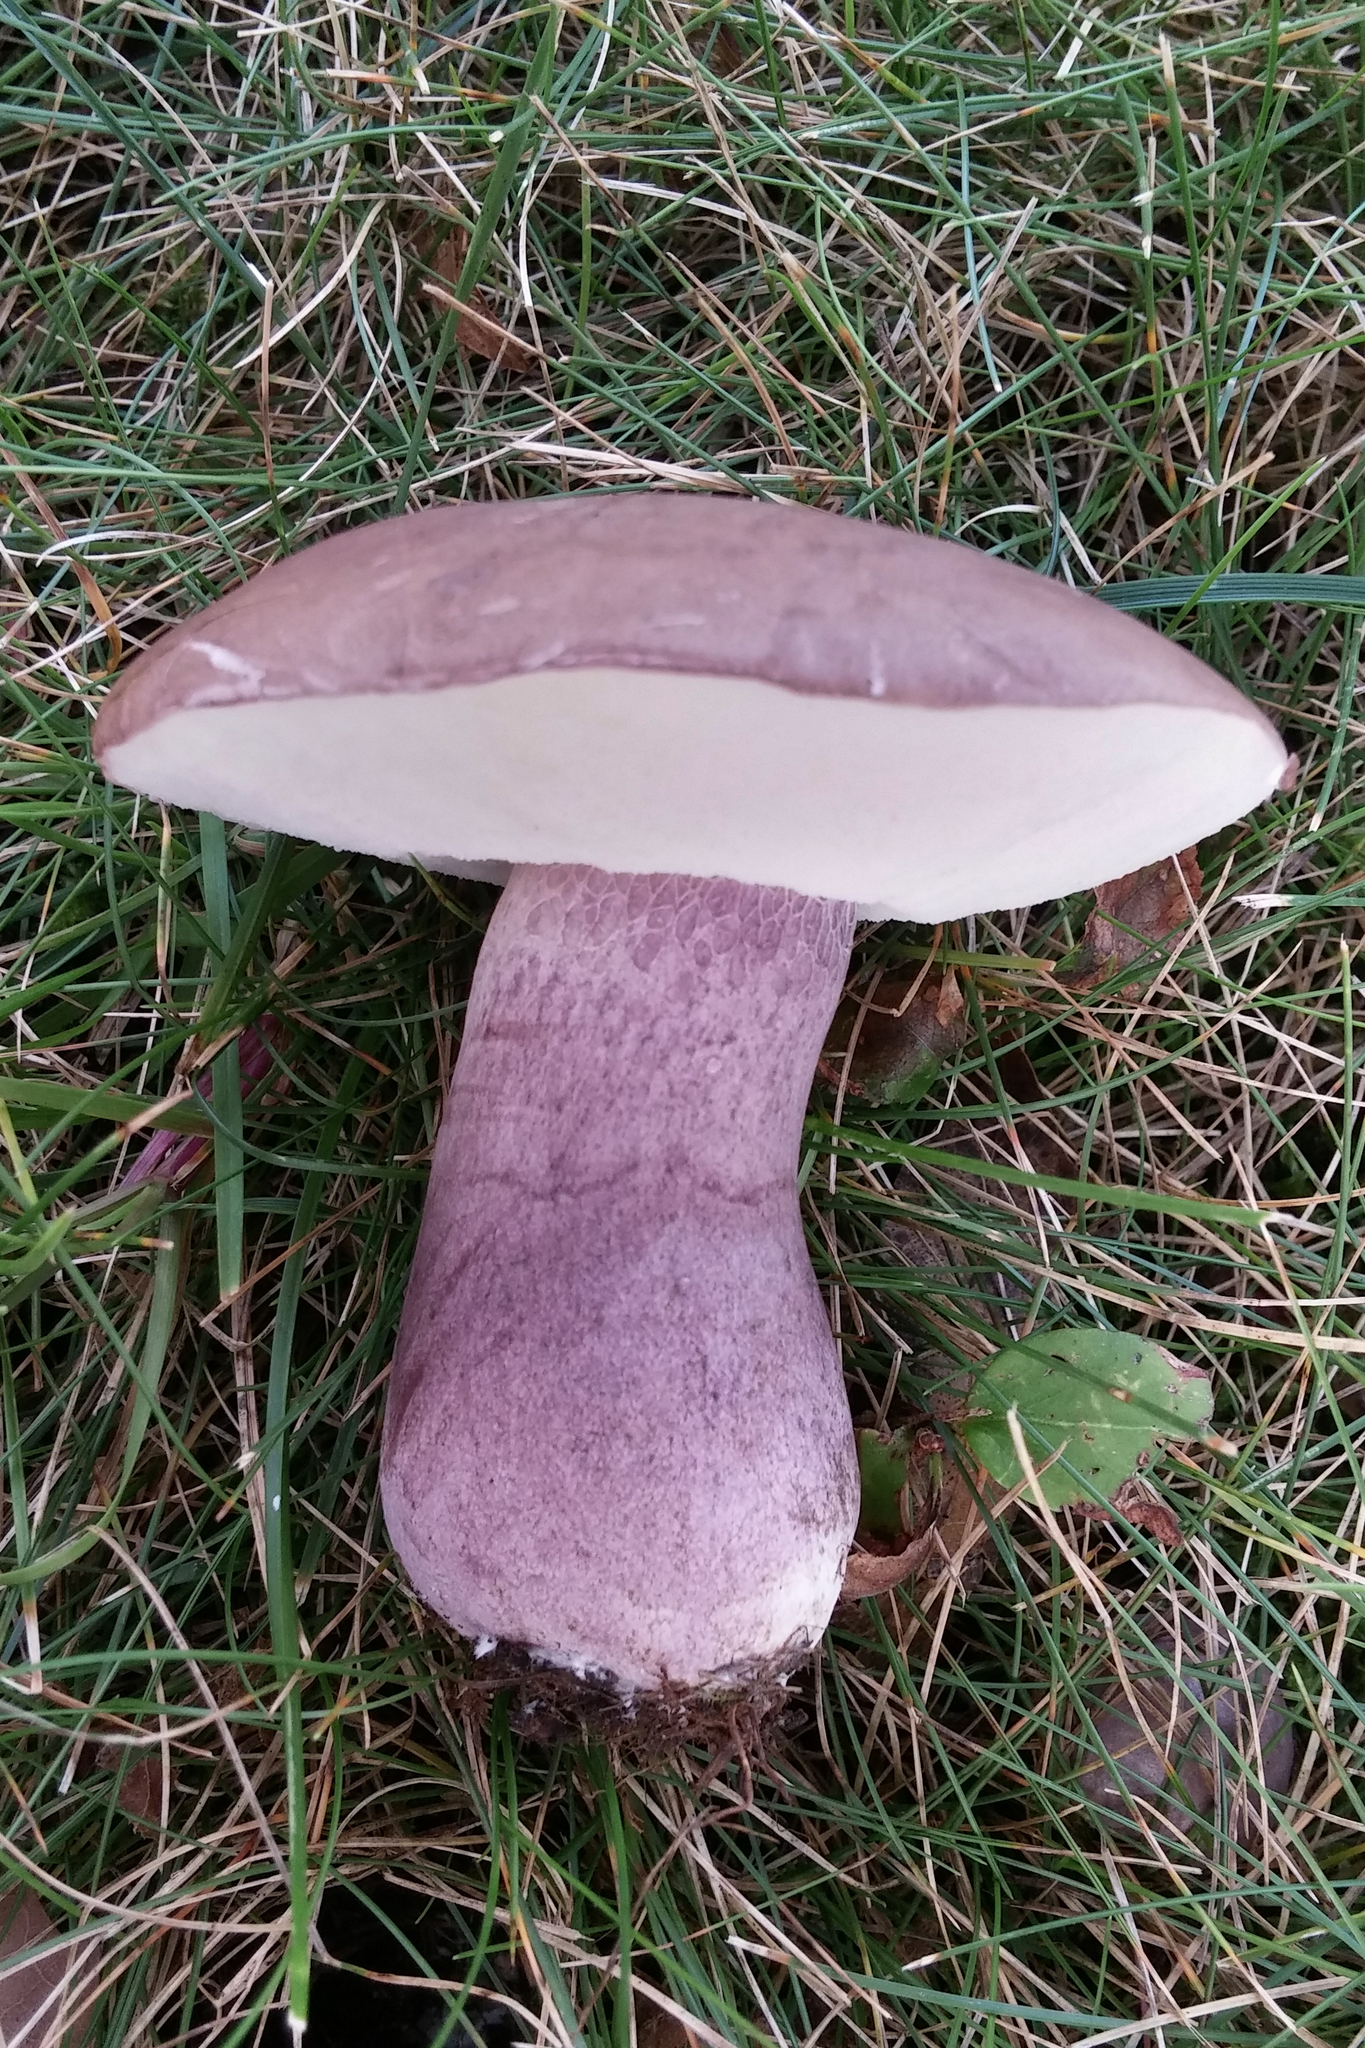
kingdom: Fungi
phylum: Basidiomycota
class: Agaricomycetes
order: Boletales
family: Boletaceae
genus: Tylopilus
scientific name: Tylopilus plumbeoviolaceus
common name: Violet gray bolete
